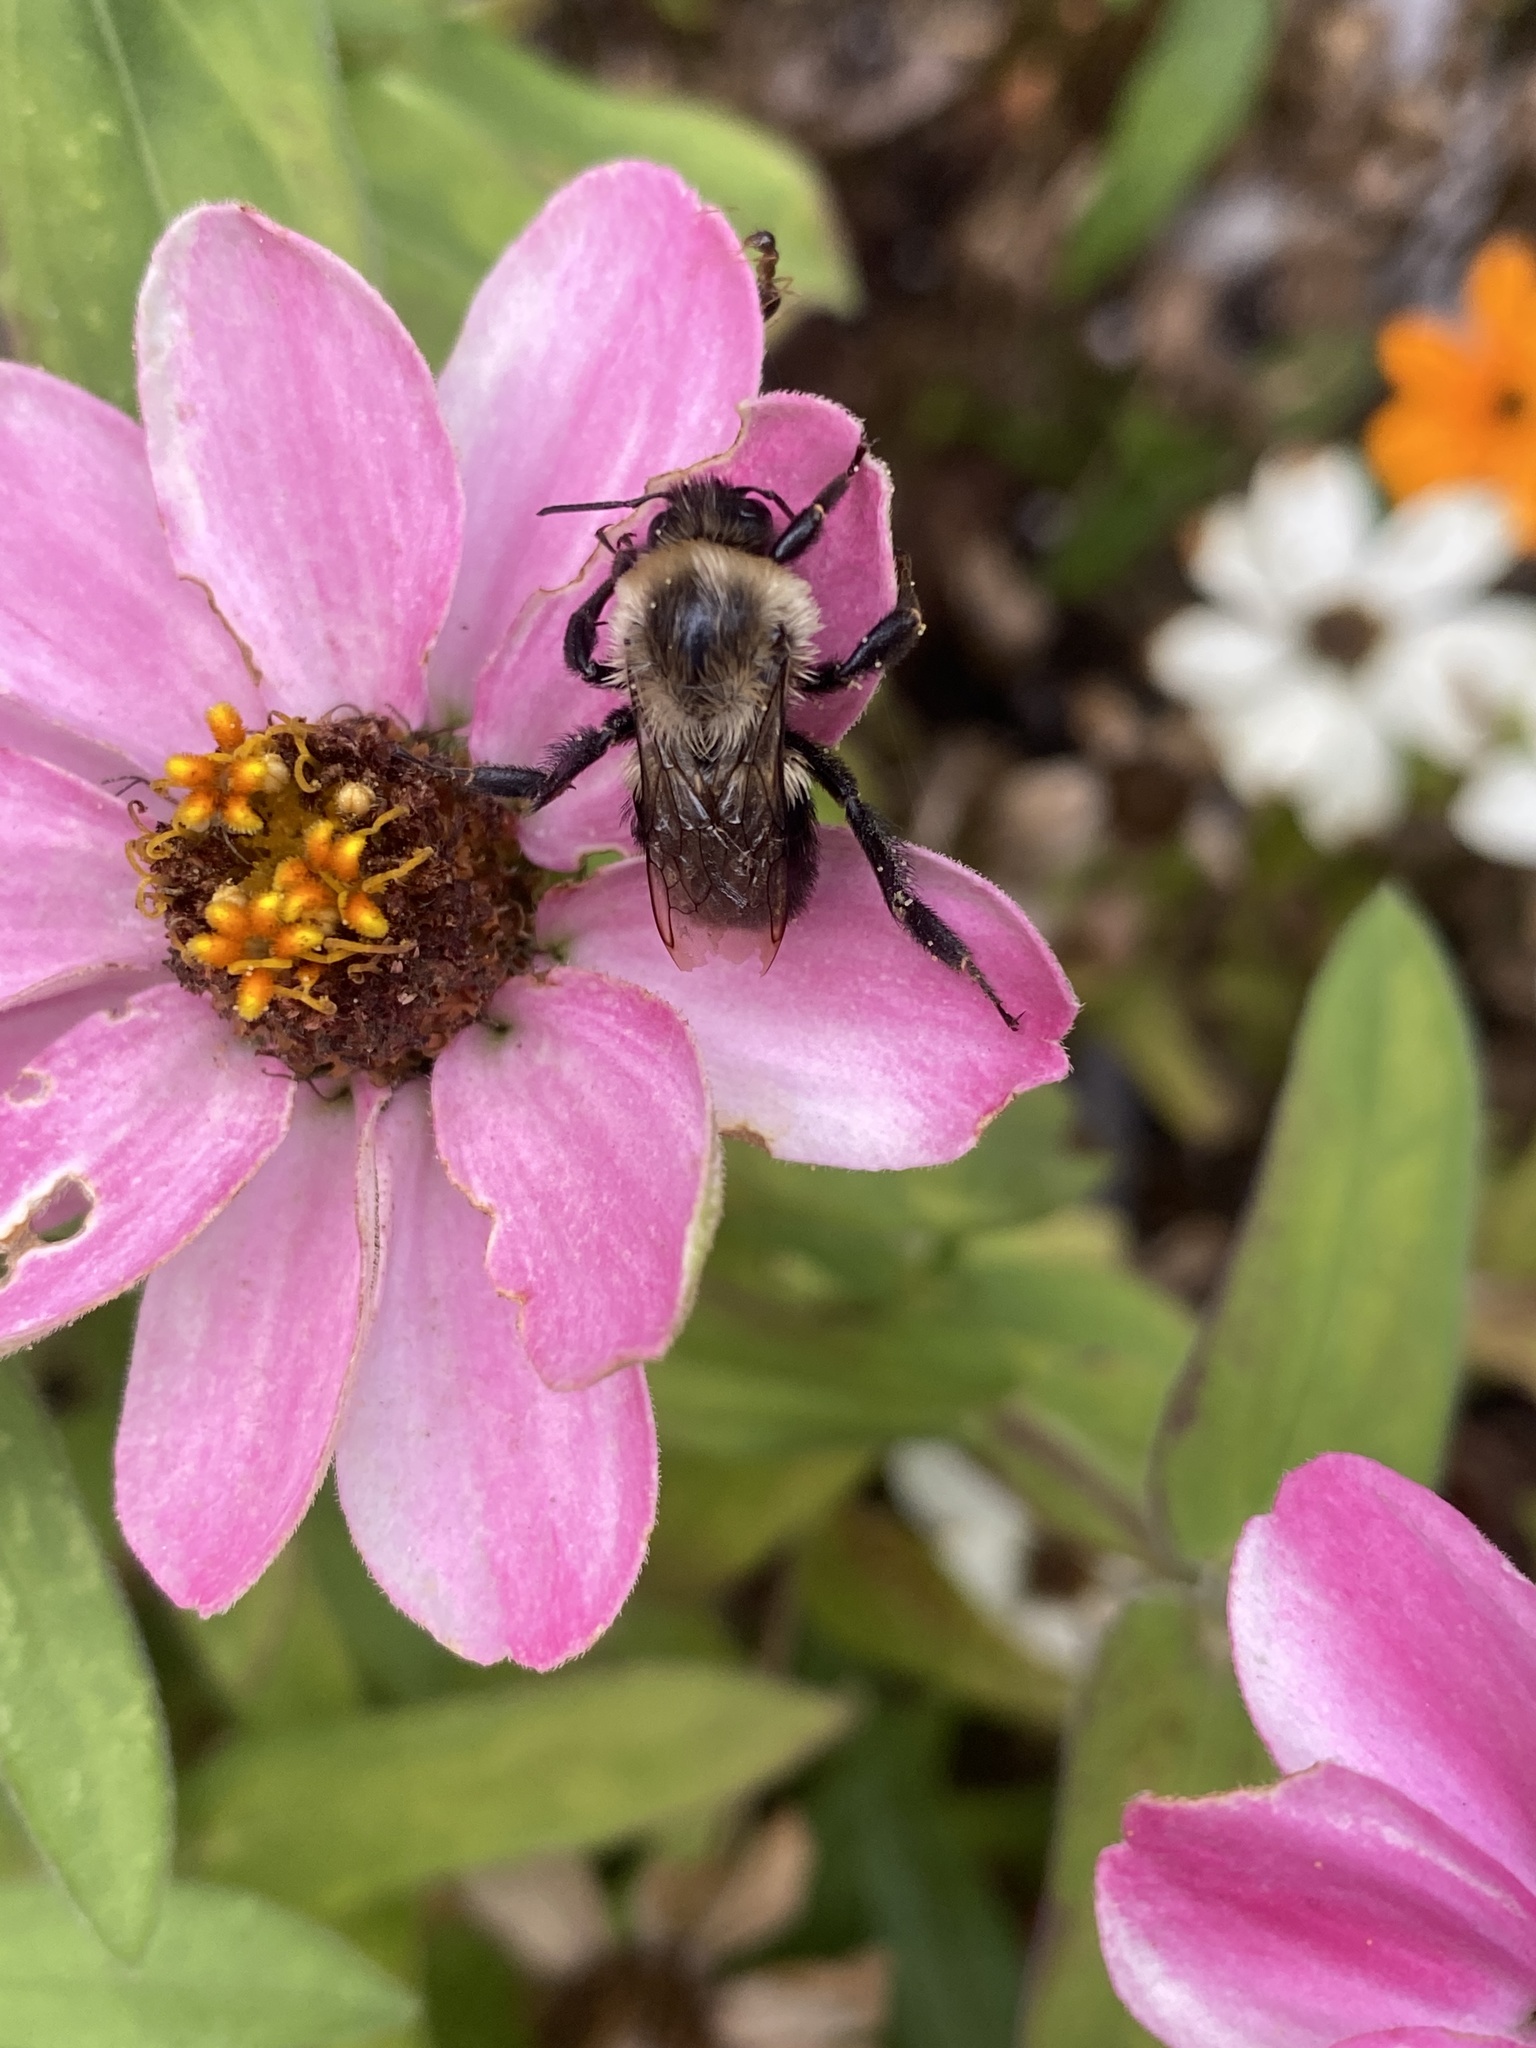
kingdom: Animalia
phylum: Arthropoda
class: Insecta
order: Hymenoptera
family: Apidae
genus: Bombus
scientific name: Bombus impatiens
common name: Common eastern bumble bee
